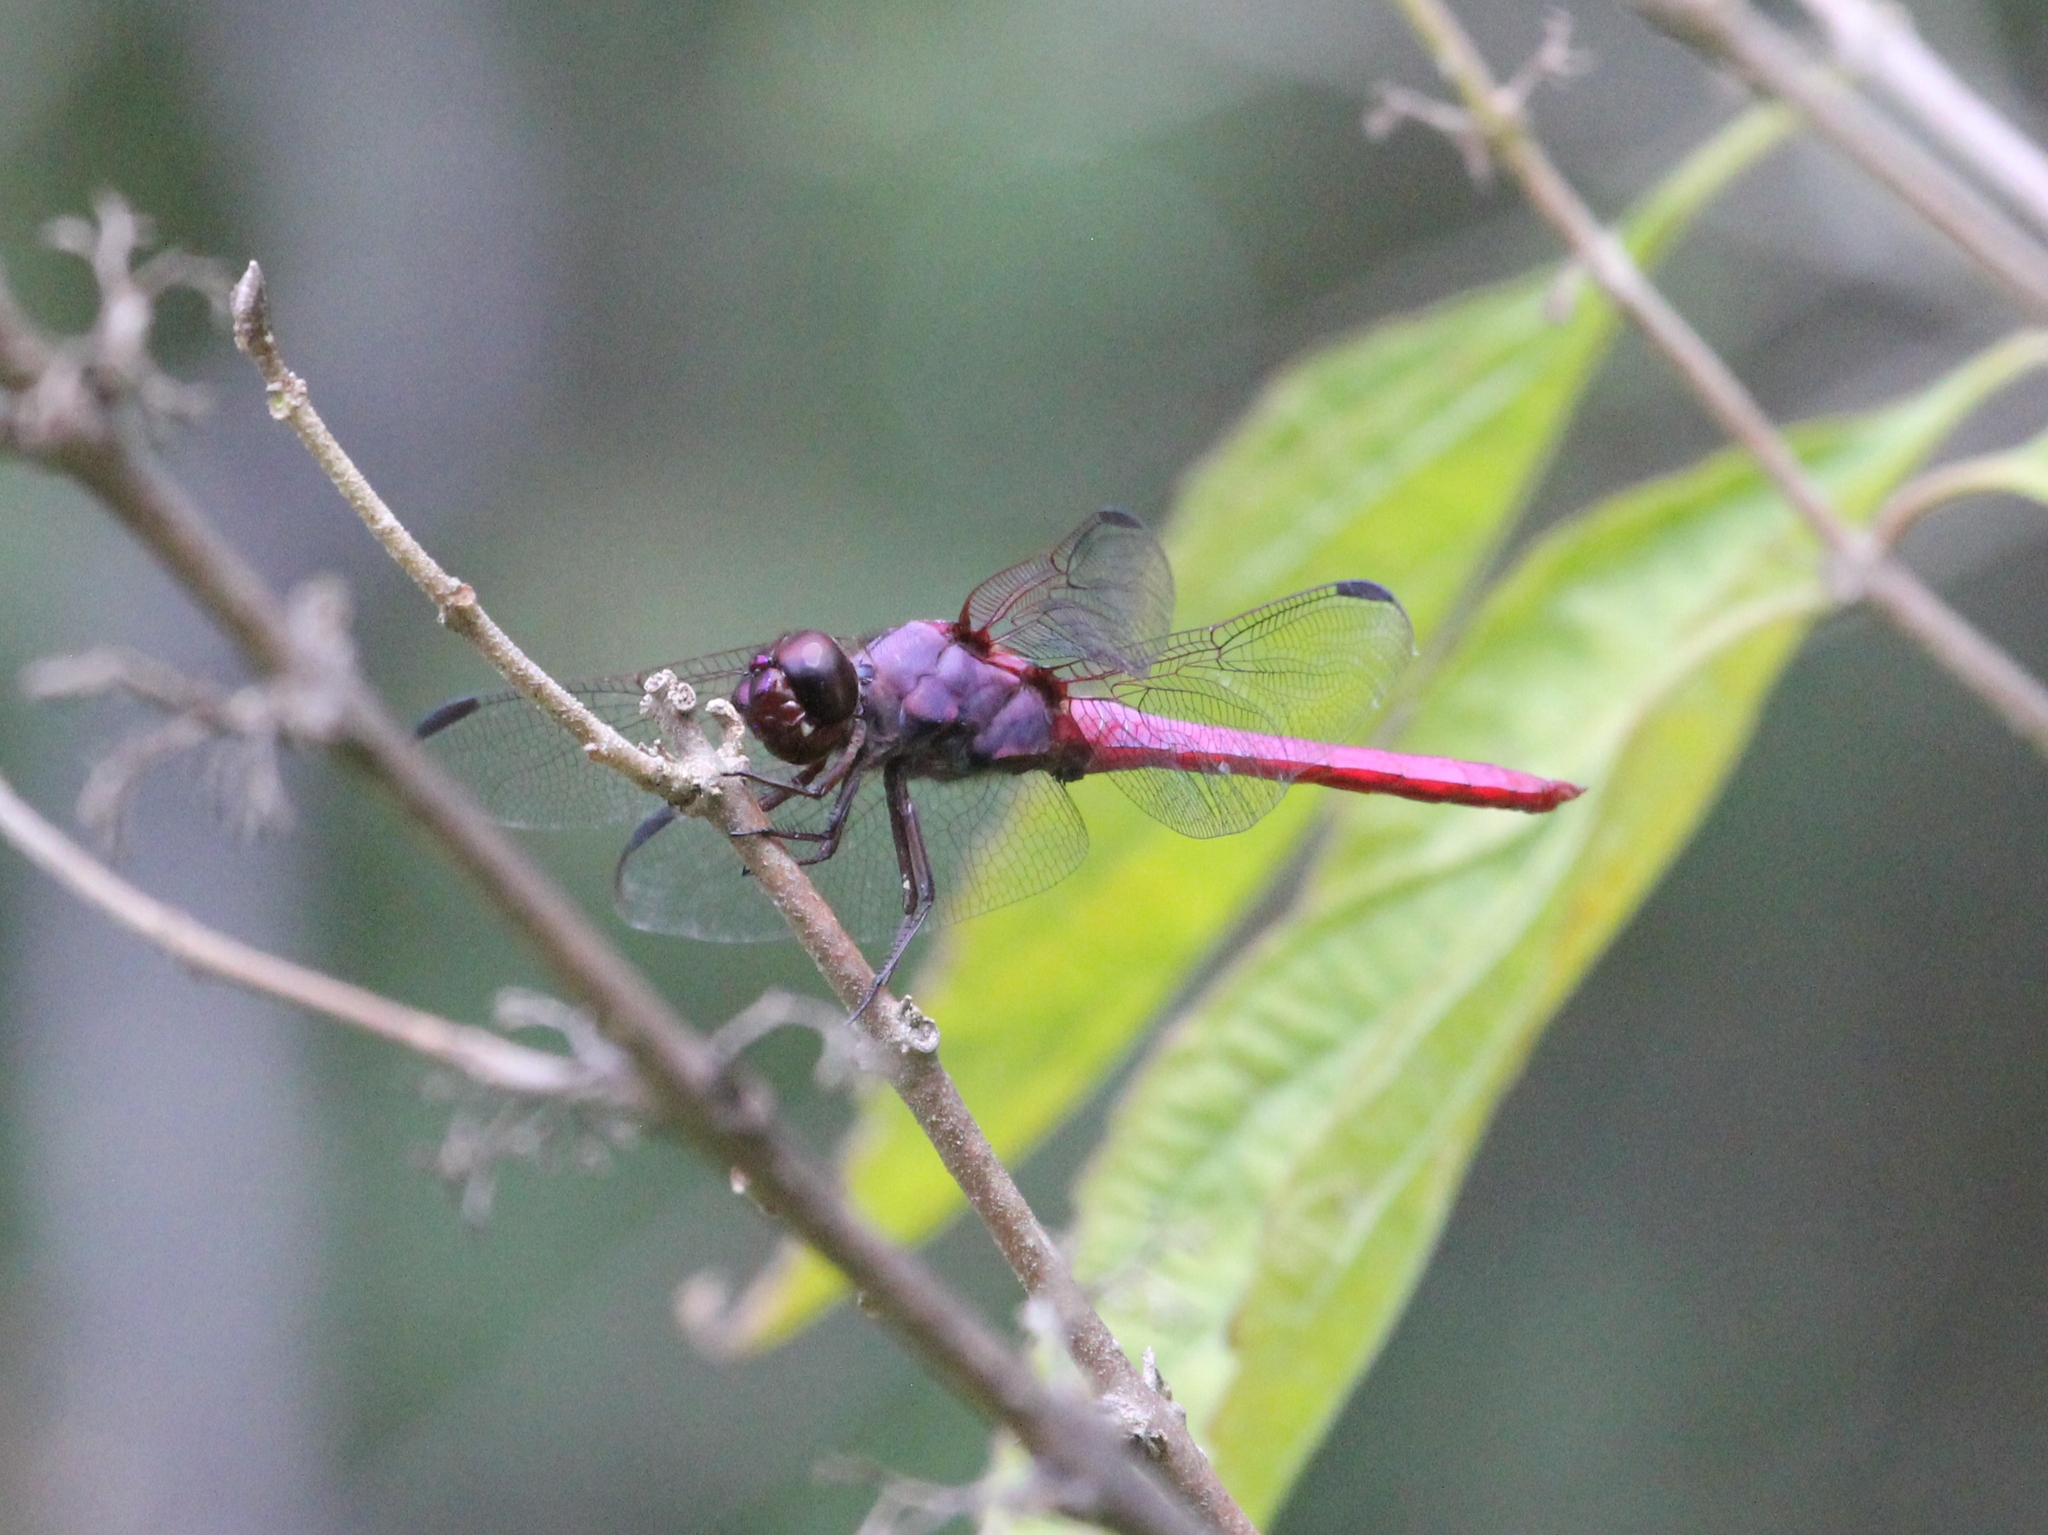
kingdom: Animalia
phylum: Arthropoda
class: Insecta
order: Odonata
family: Libellulidae
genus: Orthemis
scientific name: Orthemis ferruginea
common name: Roseate skimmer
